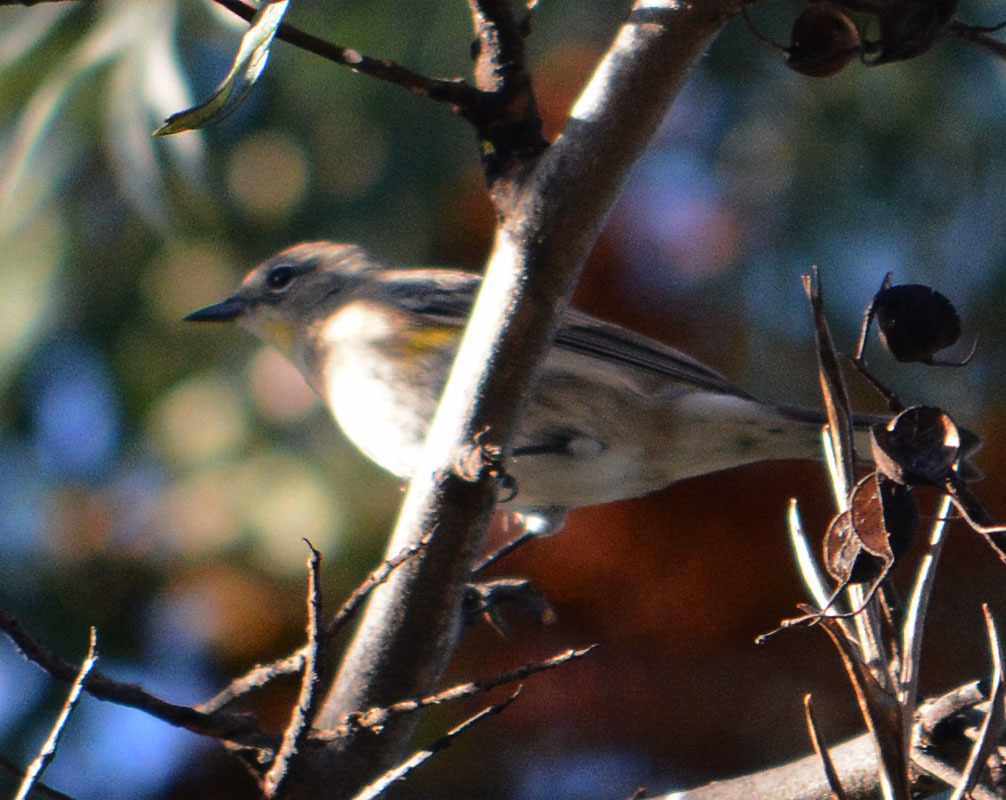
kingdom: Animalia
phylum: Chordata
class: Aves
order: Passeriformes
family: Parulidae
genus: Setophaga
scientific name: Setophaga auduboni
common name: Audubon's warbler
